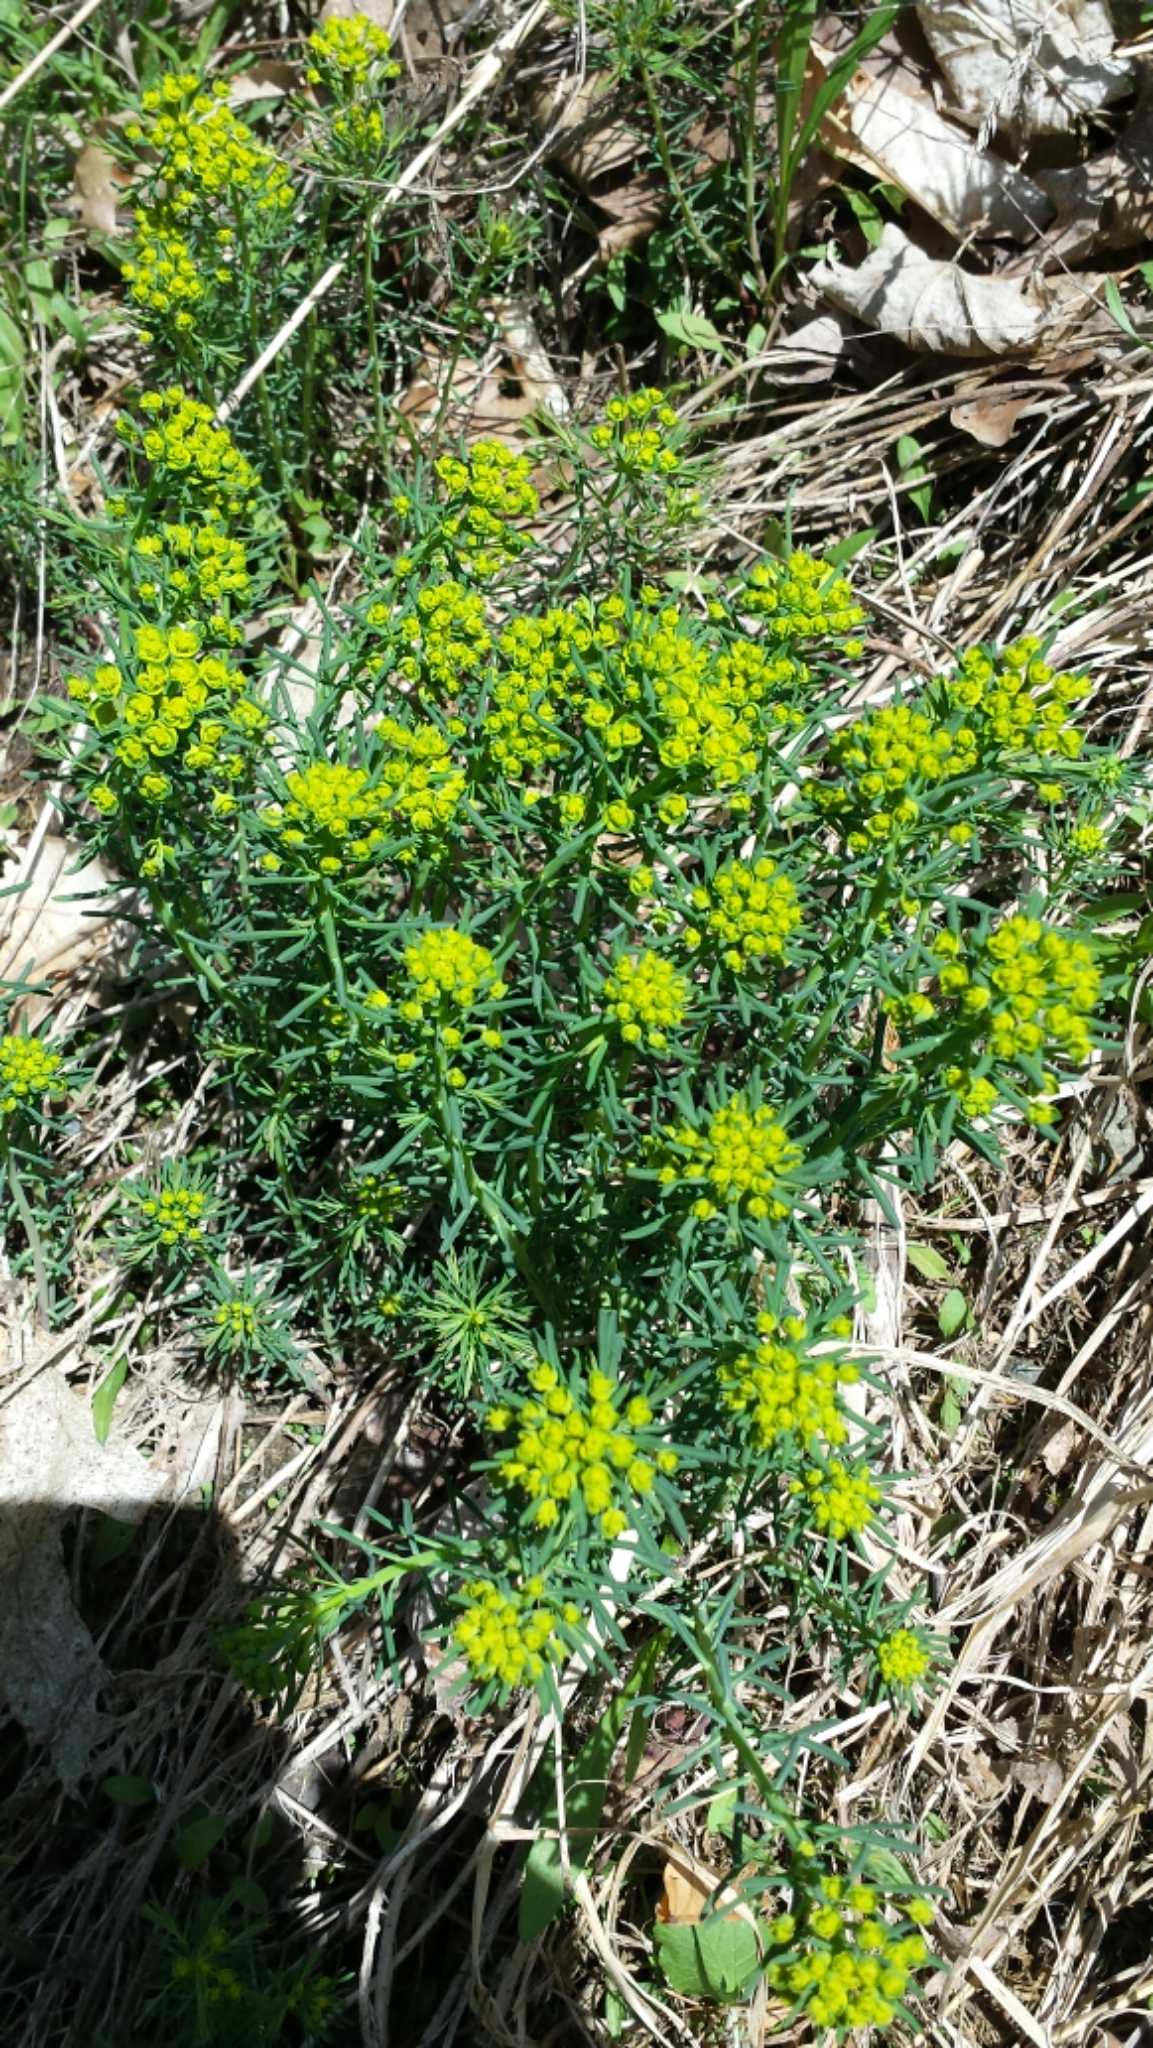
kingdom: Plantae
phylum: Tracheophyta
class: Magnoliopsida
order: Malpighiales
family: Euphorbiaceae
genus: Euphorbia
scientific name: Euphorbia cyparissias
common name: Cypress spurge
